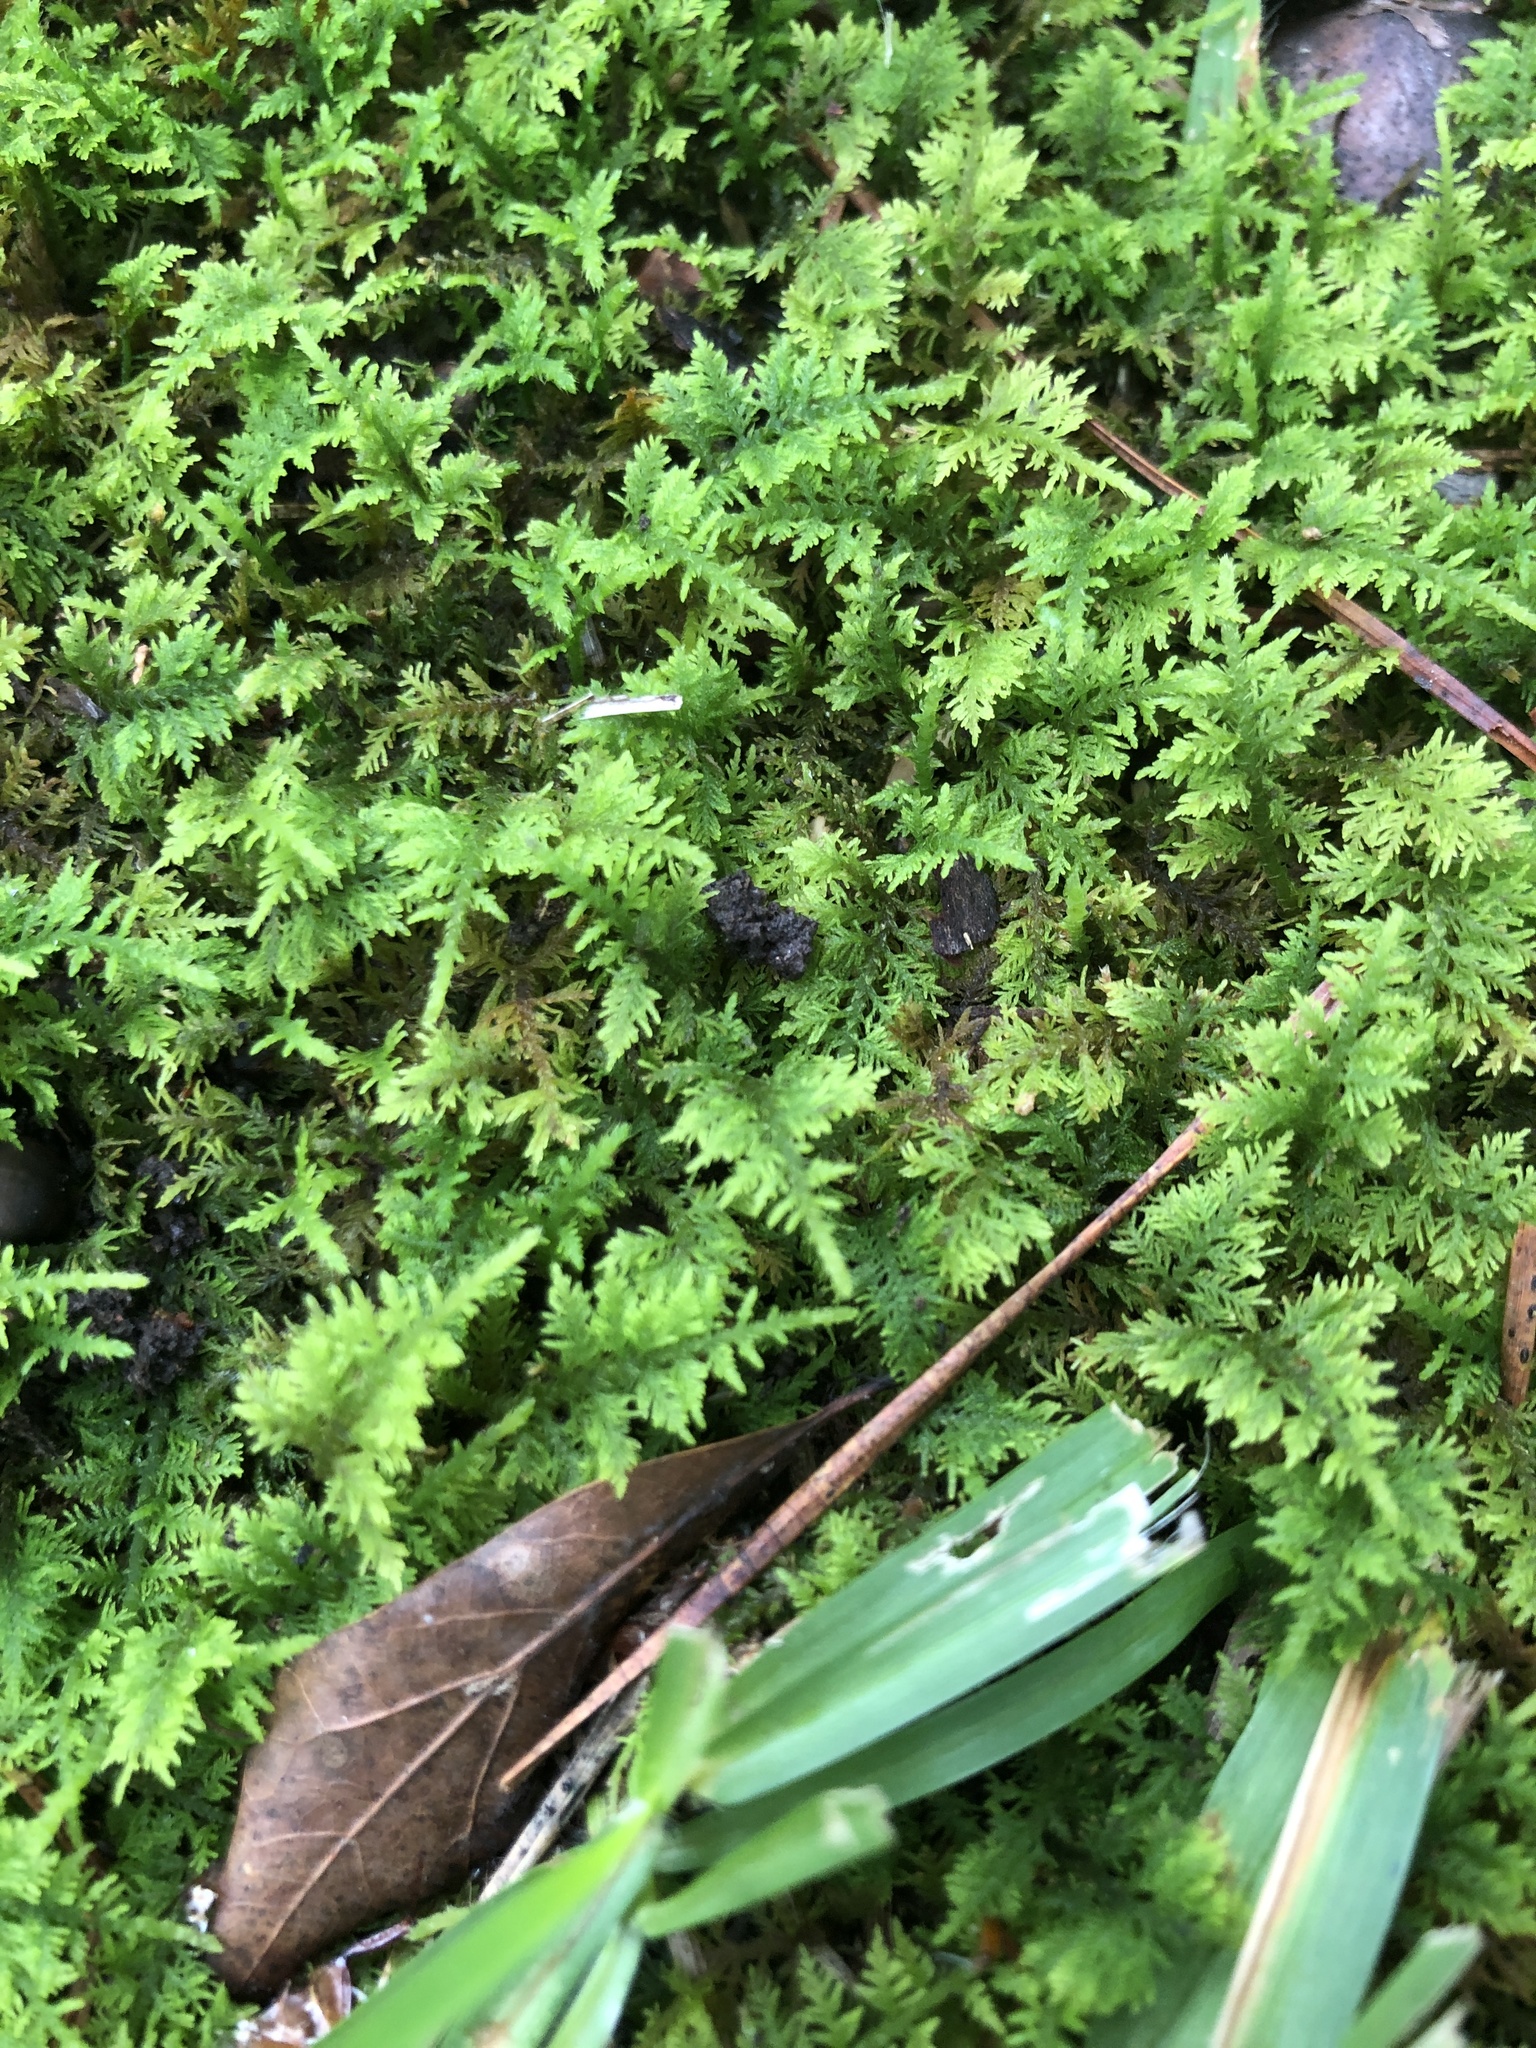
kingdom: Plantae
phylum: Bryophyta
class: Bryopsida
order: Hypnales
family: Thuidiaceae
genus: Thuidium
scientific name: Thuidium delicatulum
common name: Delicate fern moss
